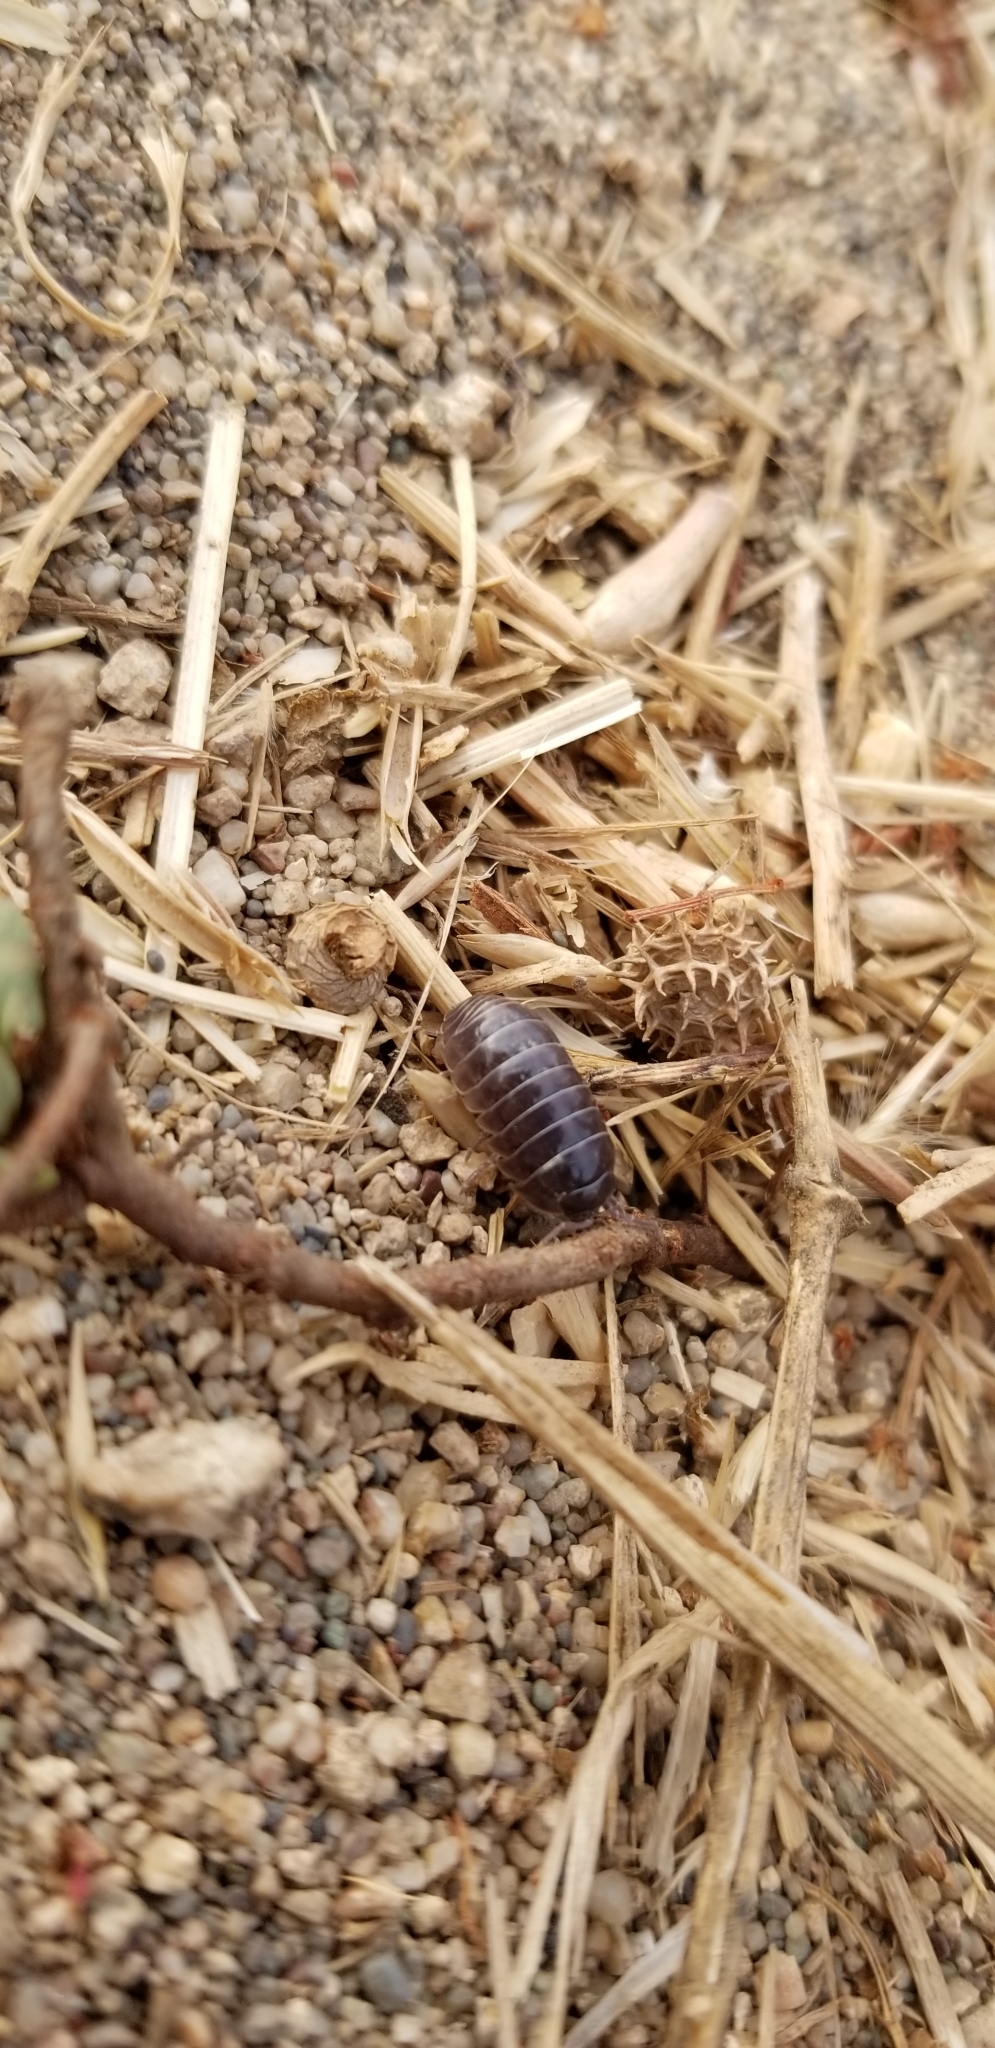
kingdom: Animalia
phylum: Arthropoda
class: Malacostraca
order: Isopoda
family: Armadillidiidae
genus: Armadillidium
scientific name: Armadillidium vulgare
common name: Common pill woodlouse
